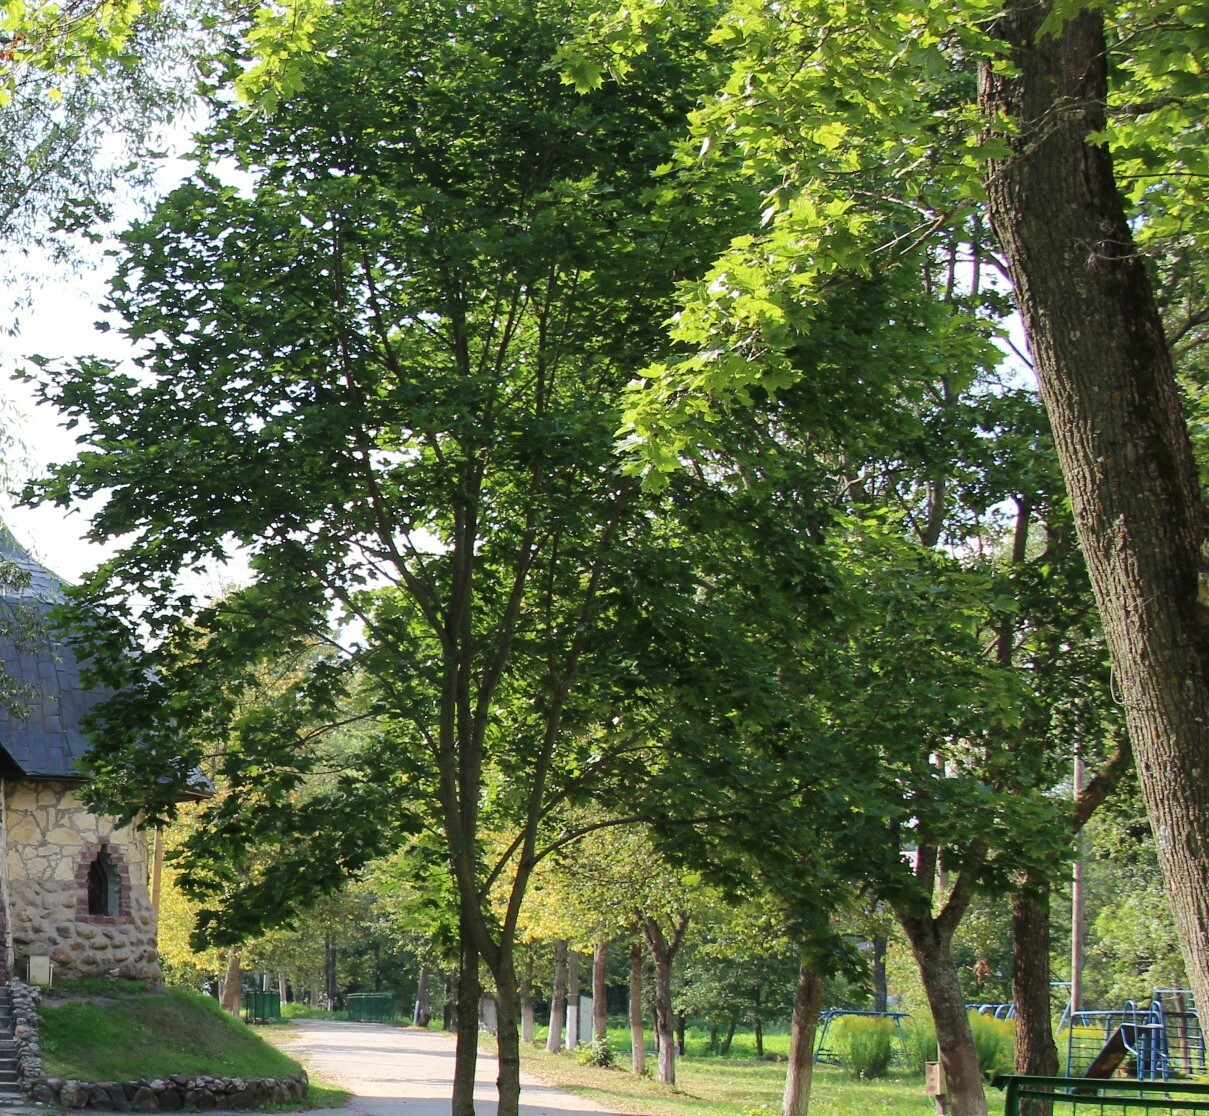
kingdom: Plantae
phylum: Tracheophyta
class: Magnoliopsida
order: Sapindales
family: Sapindaceae
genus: Acer
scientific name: Acer platanoides
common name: Norway maple
